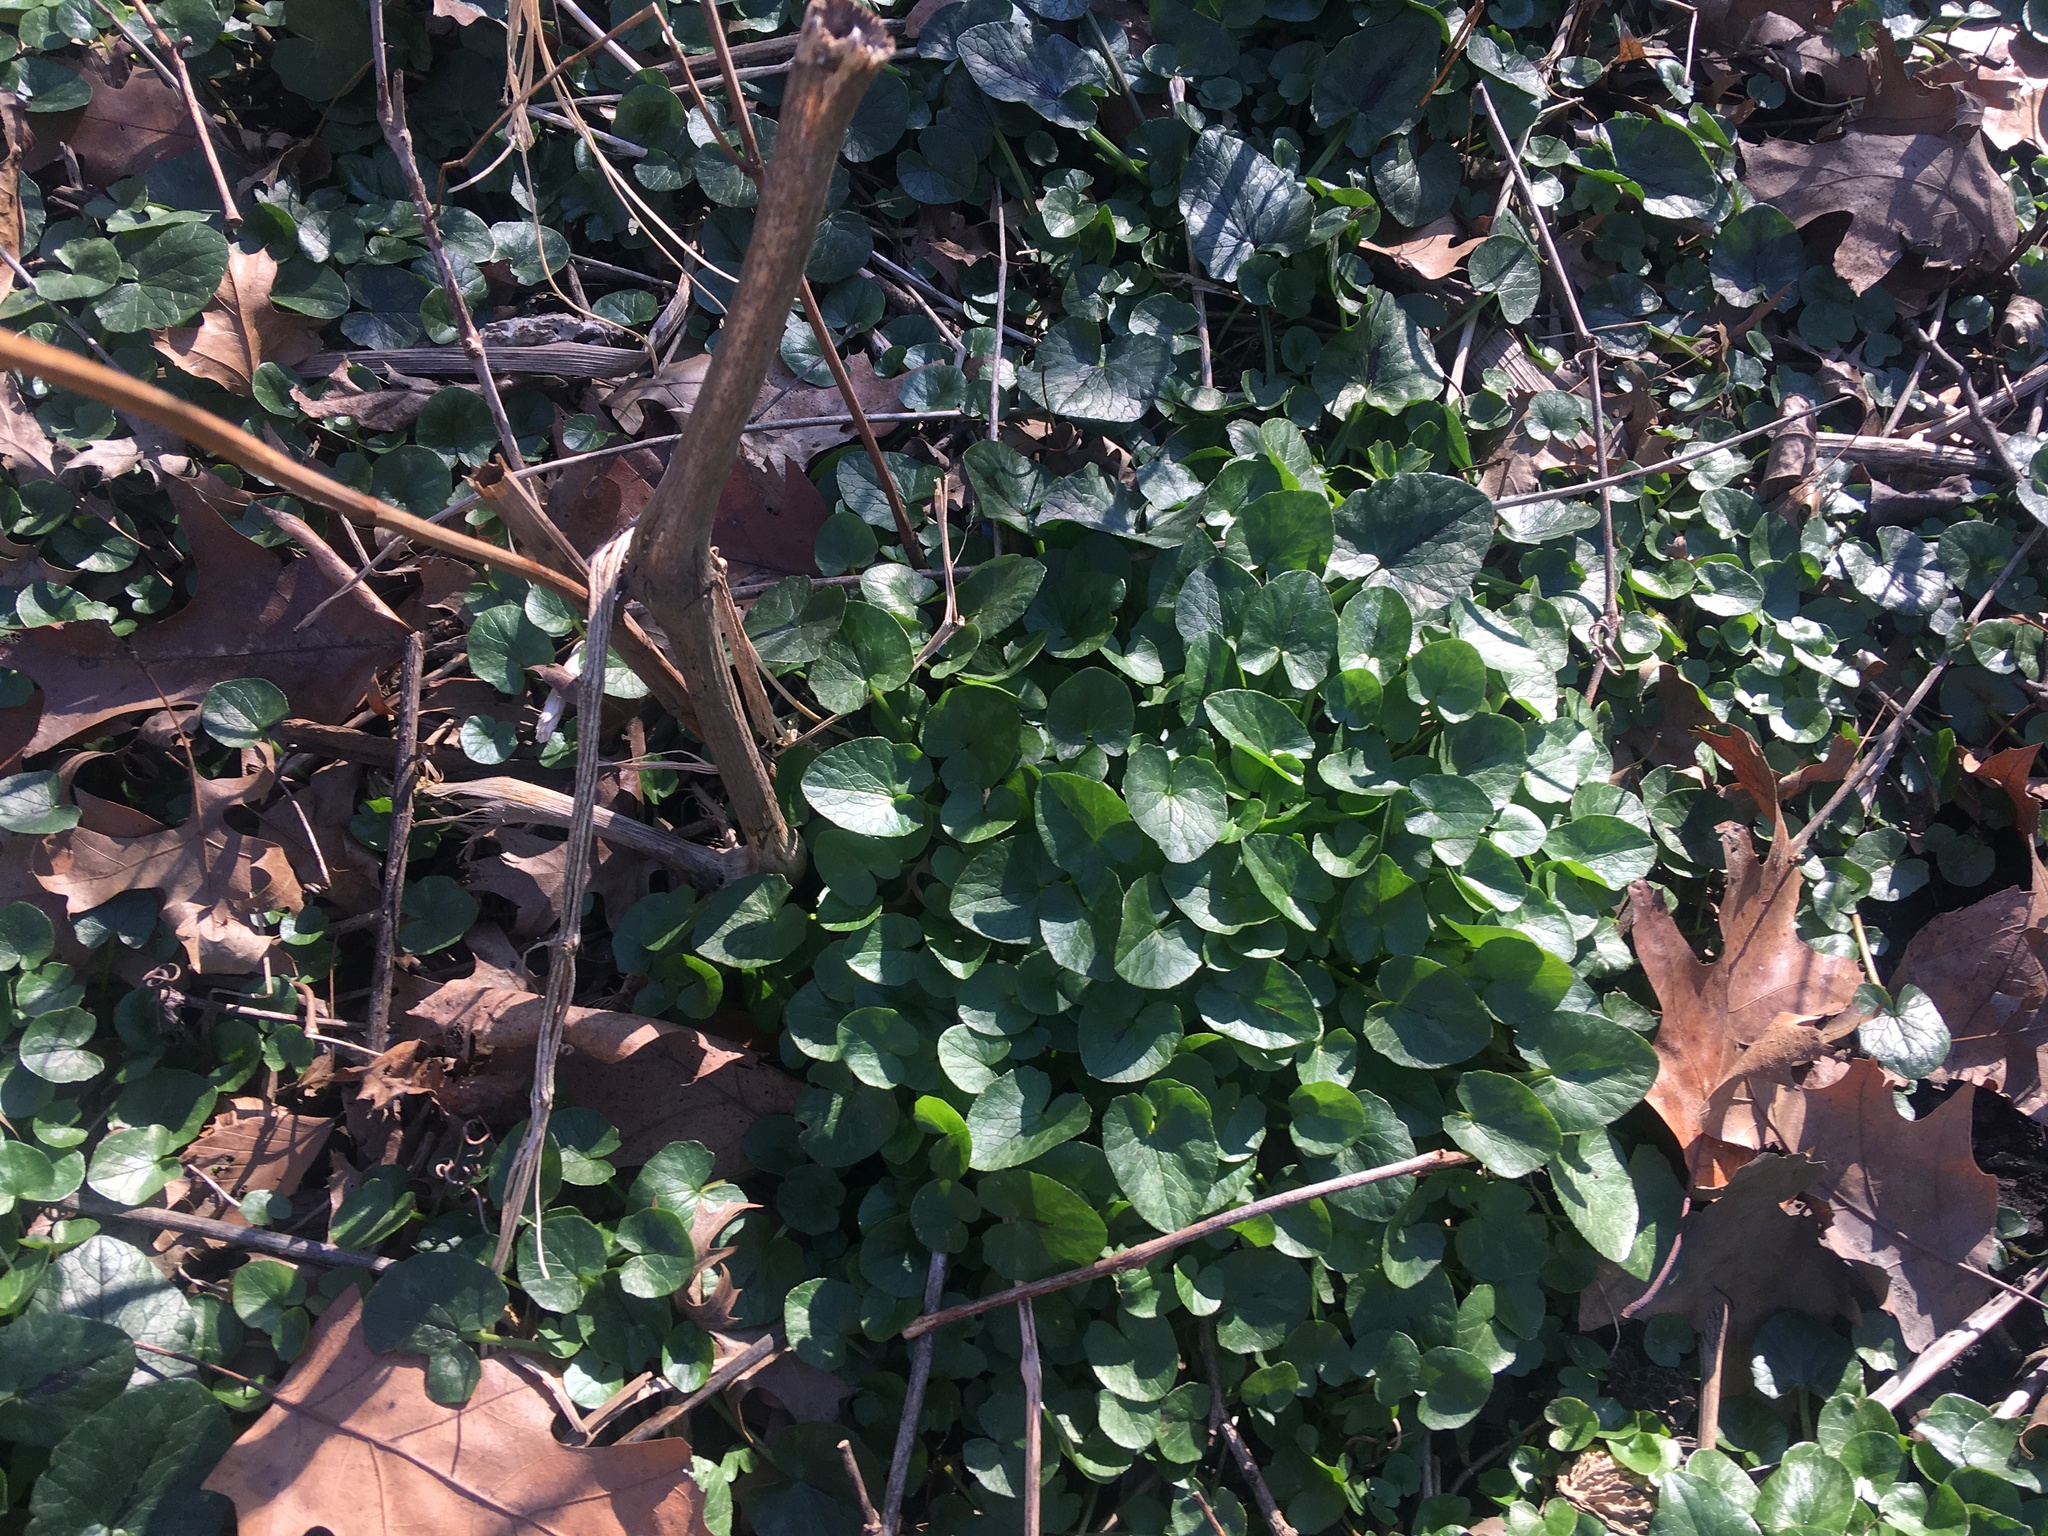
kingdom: Plantae
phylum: Tracheophyta
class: Magnoliopsida
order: Ranunculales
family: Ranunculaceae
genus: Ficaria
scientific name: Ficaria verna
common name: Lesser celandine
